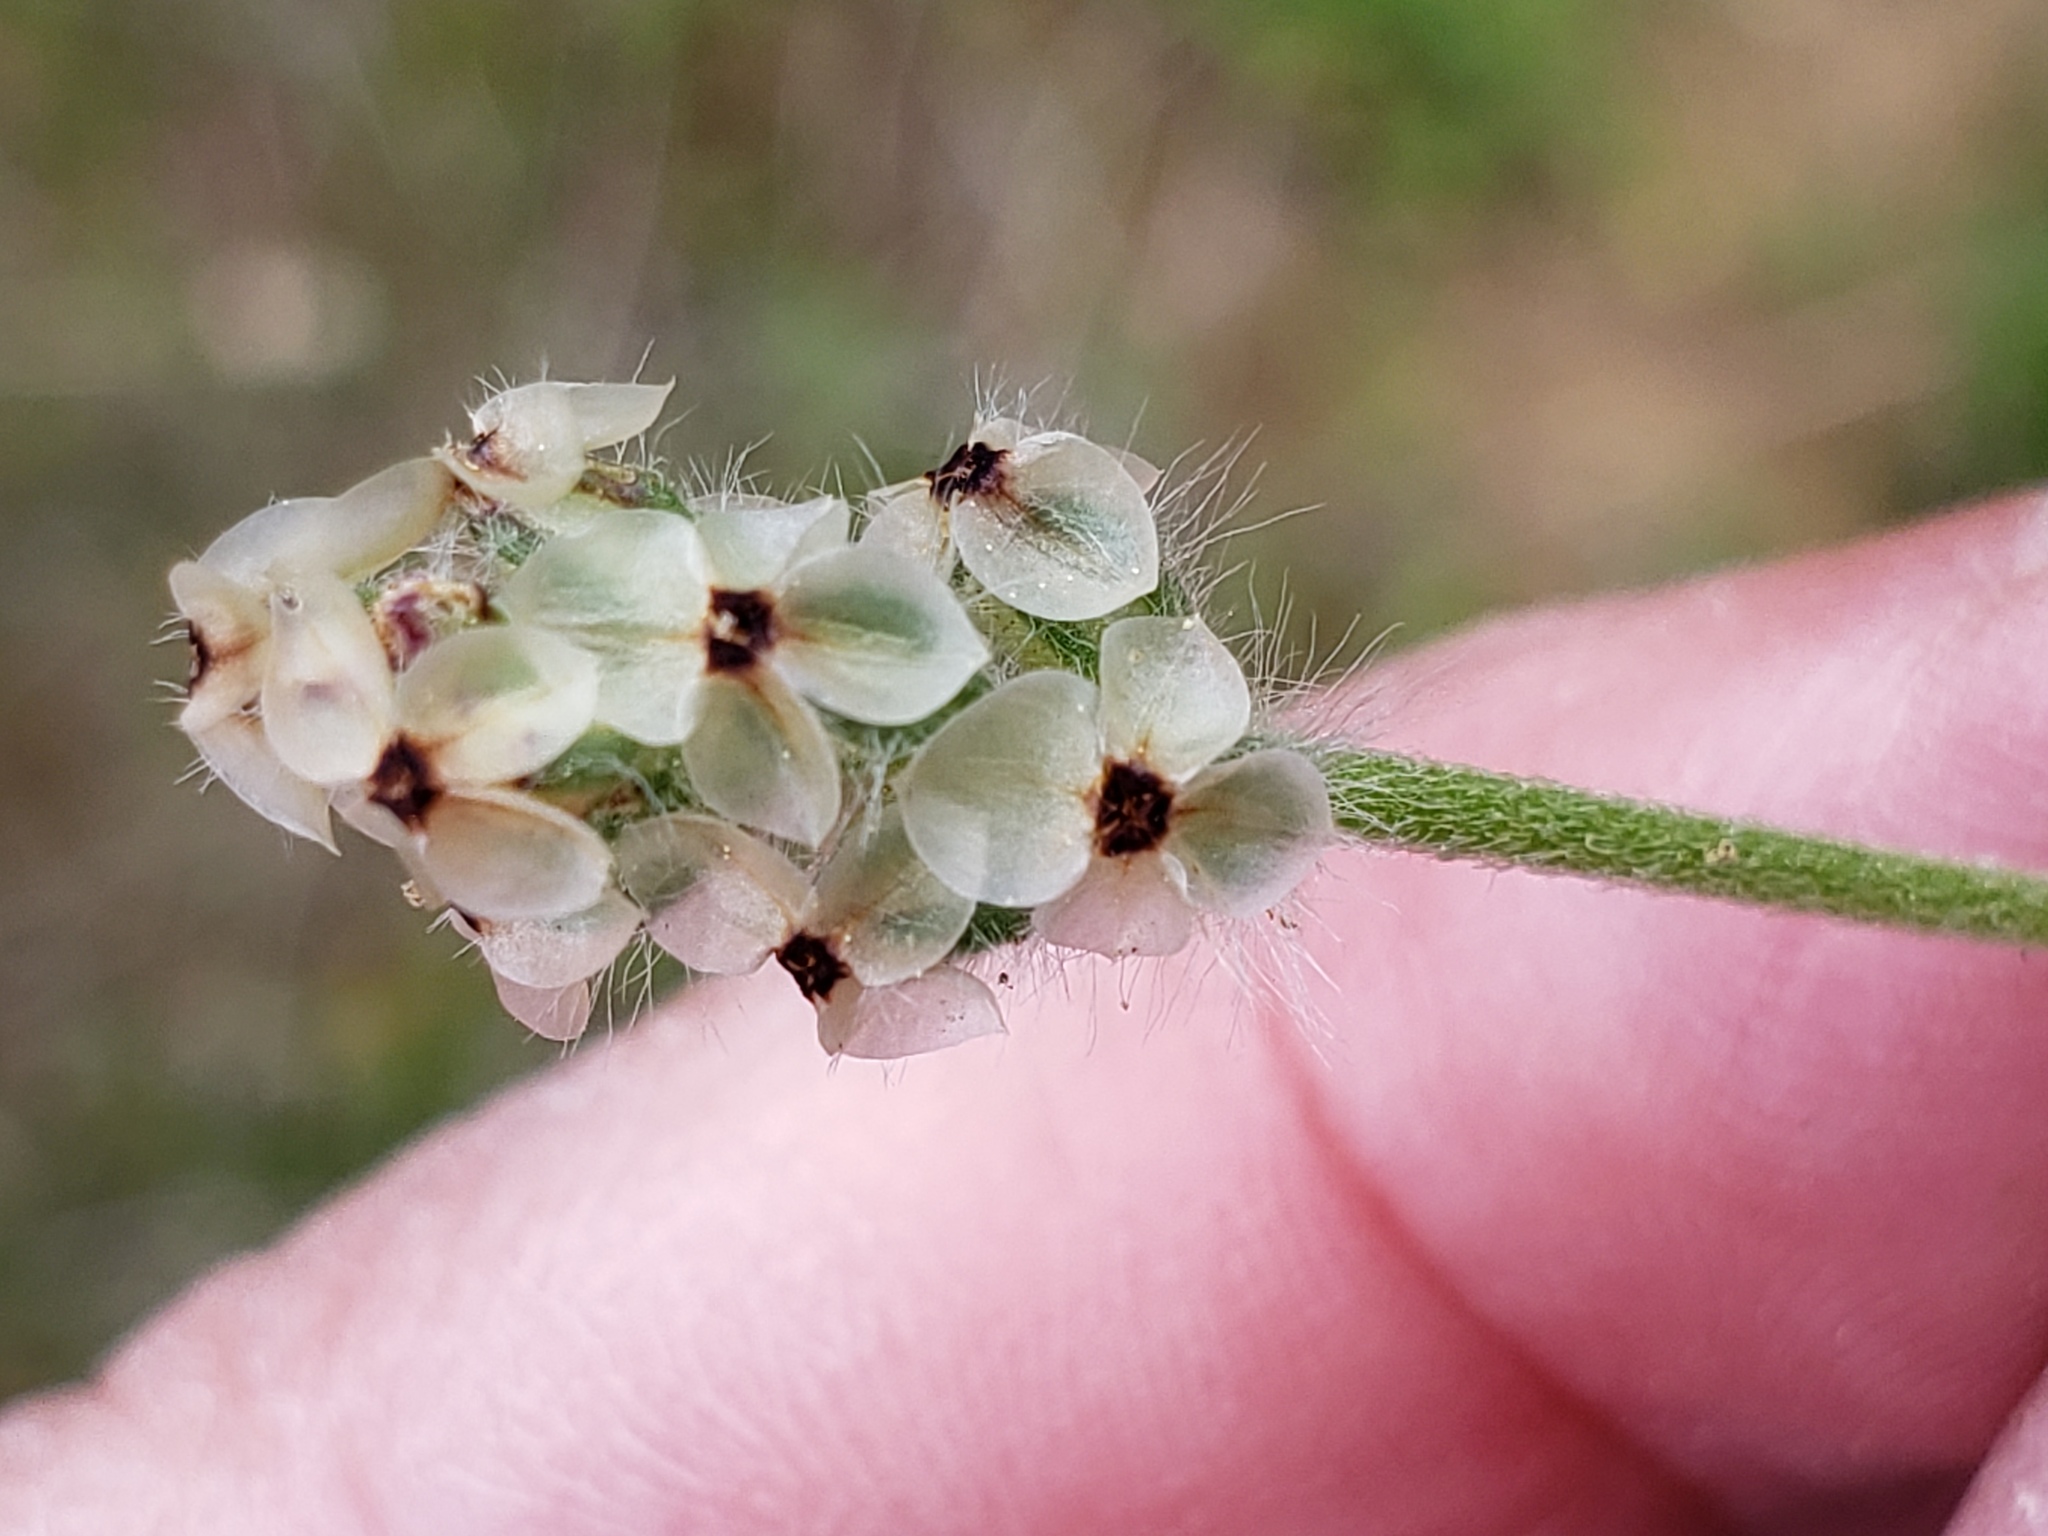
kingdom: Plantae
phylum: Tracheophyta
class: Magnoliopsida
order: Lamiales
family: Plantaginaceae
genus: Plantago
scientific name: Plantago erecta
